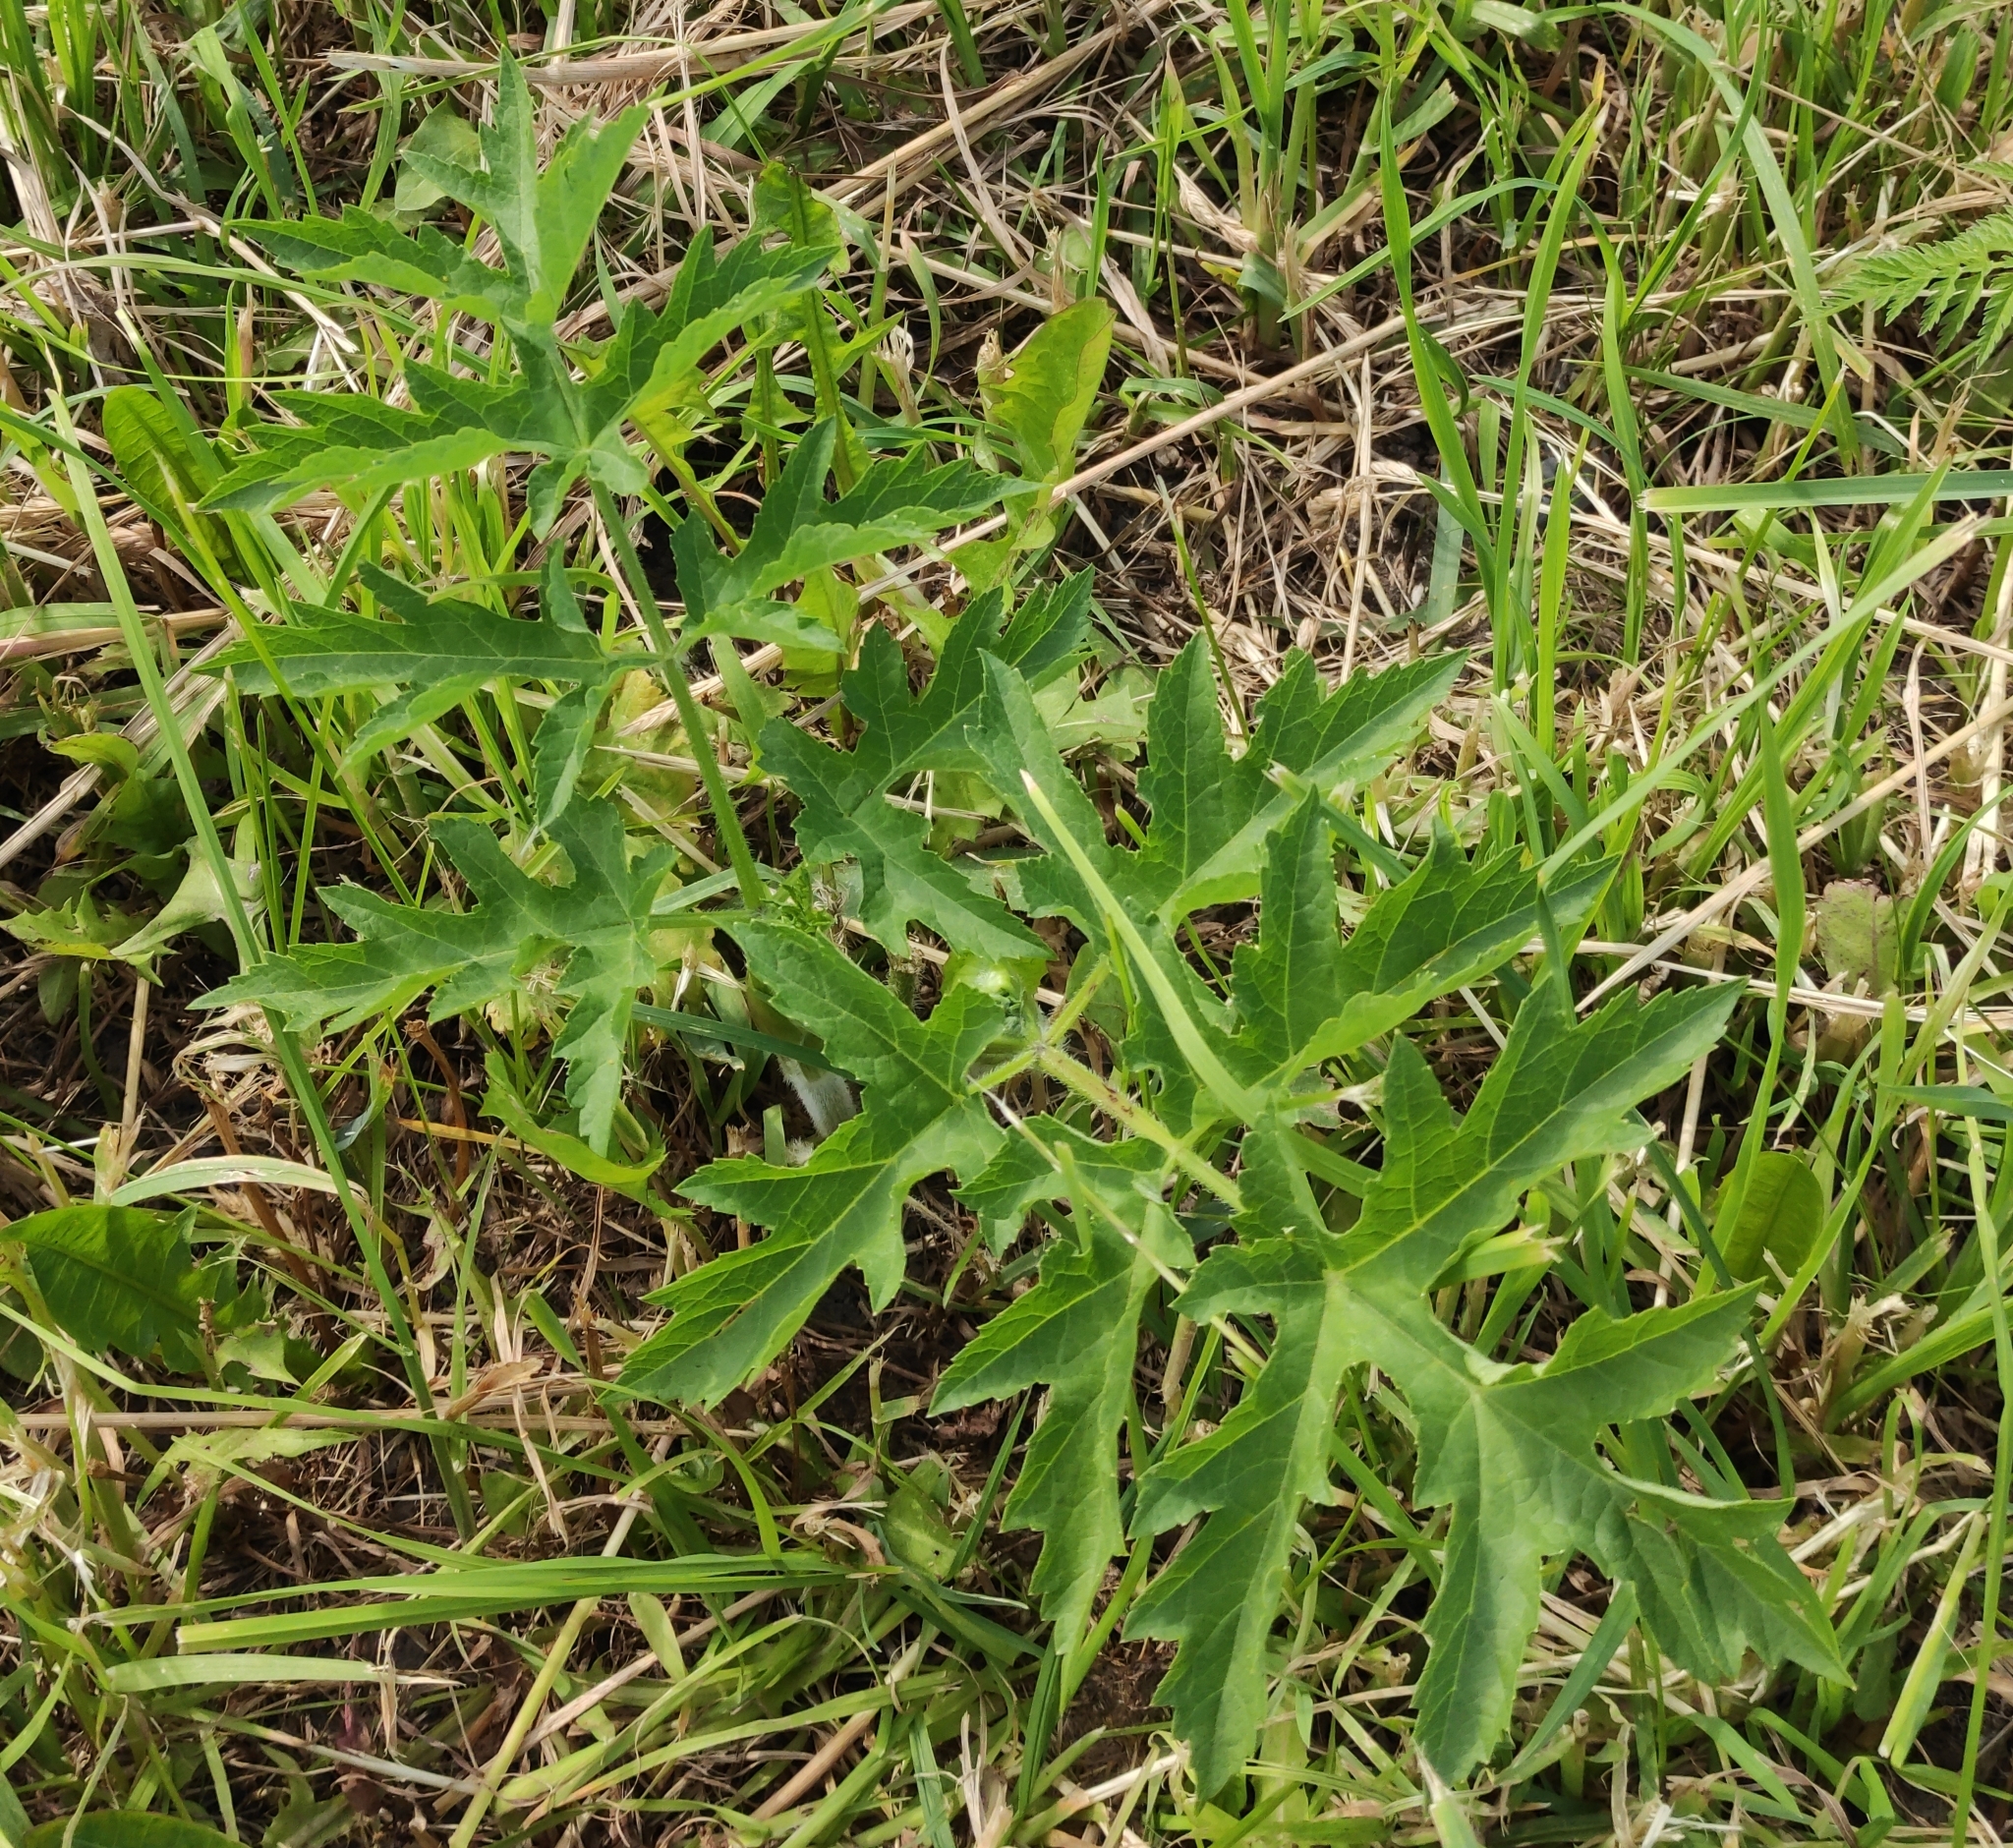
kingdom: Plantae
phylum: Tracheophyta
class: Magnoliopsida
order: Apiales
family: Apiaceae
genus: Heracleum
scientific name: Heracleum sphondylium
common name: Hogweed
